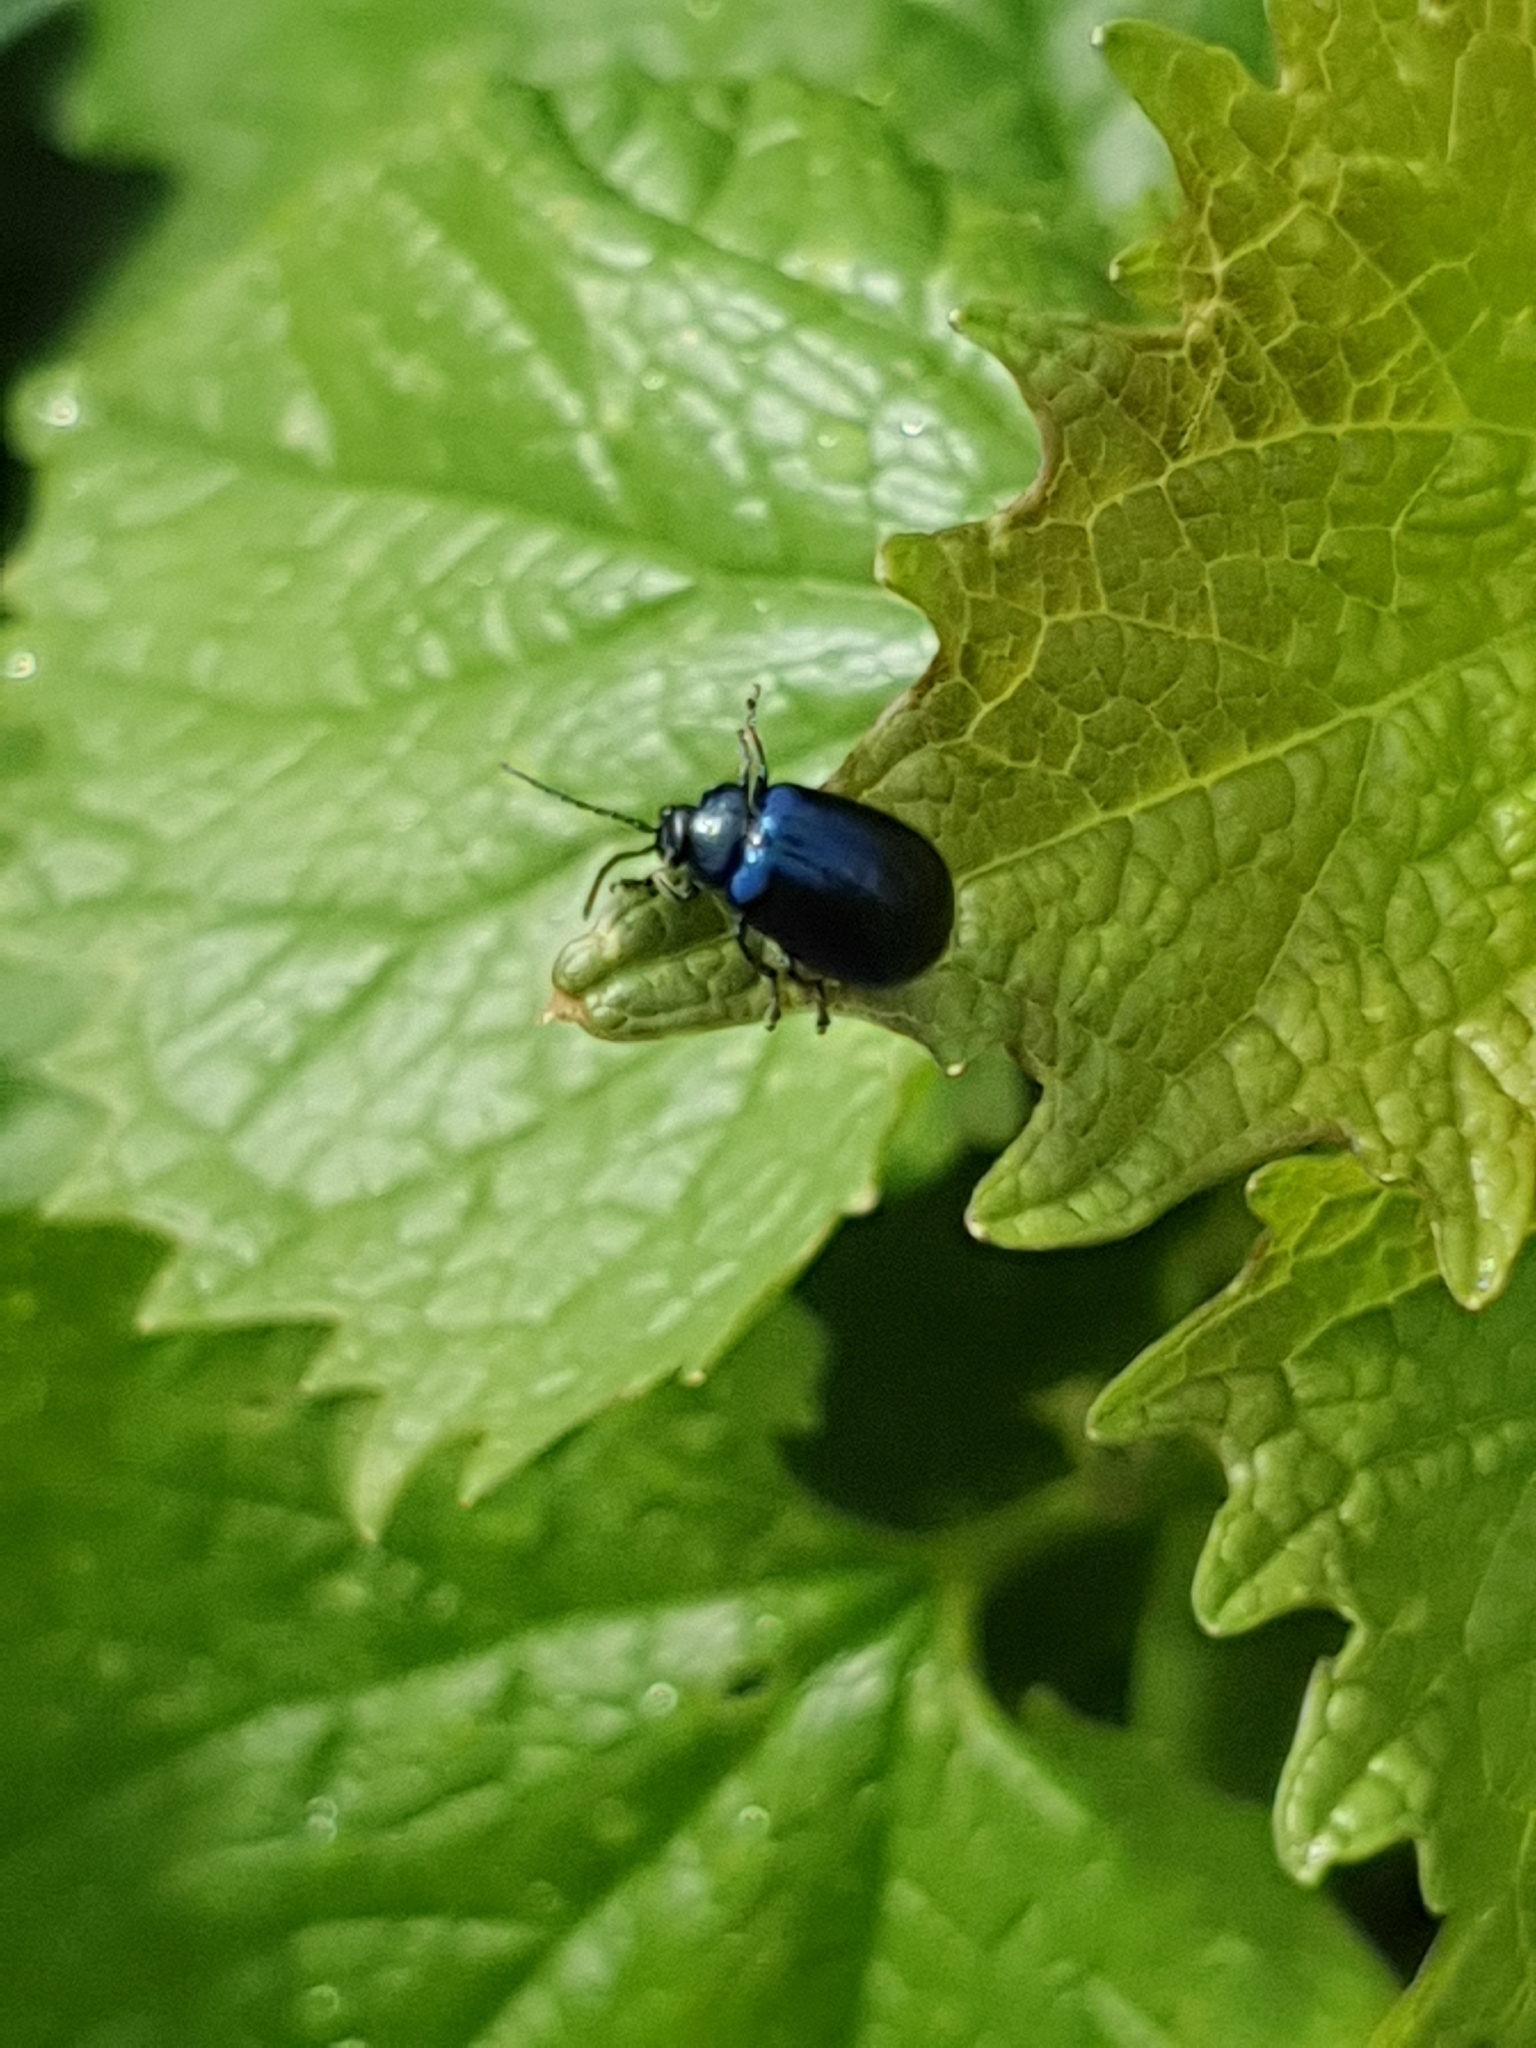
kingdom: Animalia
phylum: Arthropoda
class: Insecta
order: Coleoptera
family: Chrysomelidae
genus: Agelastica
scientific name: Agelastica alni
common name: Alder leaf beetle
